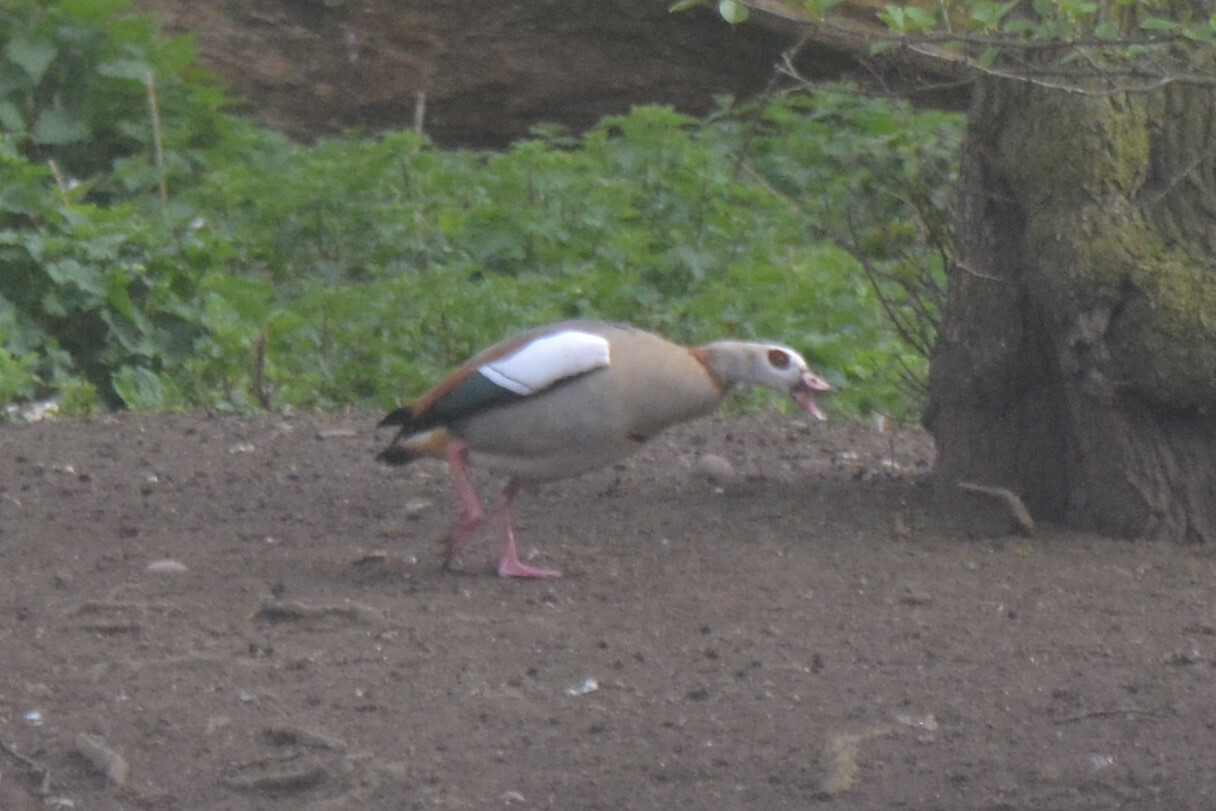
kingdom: Animalia
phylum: Chordata
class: Aves
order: Anseriformes
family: Anatidae
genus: Alopochen
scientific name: Alopochen aegyptiaca
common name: Egyptian goose
